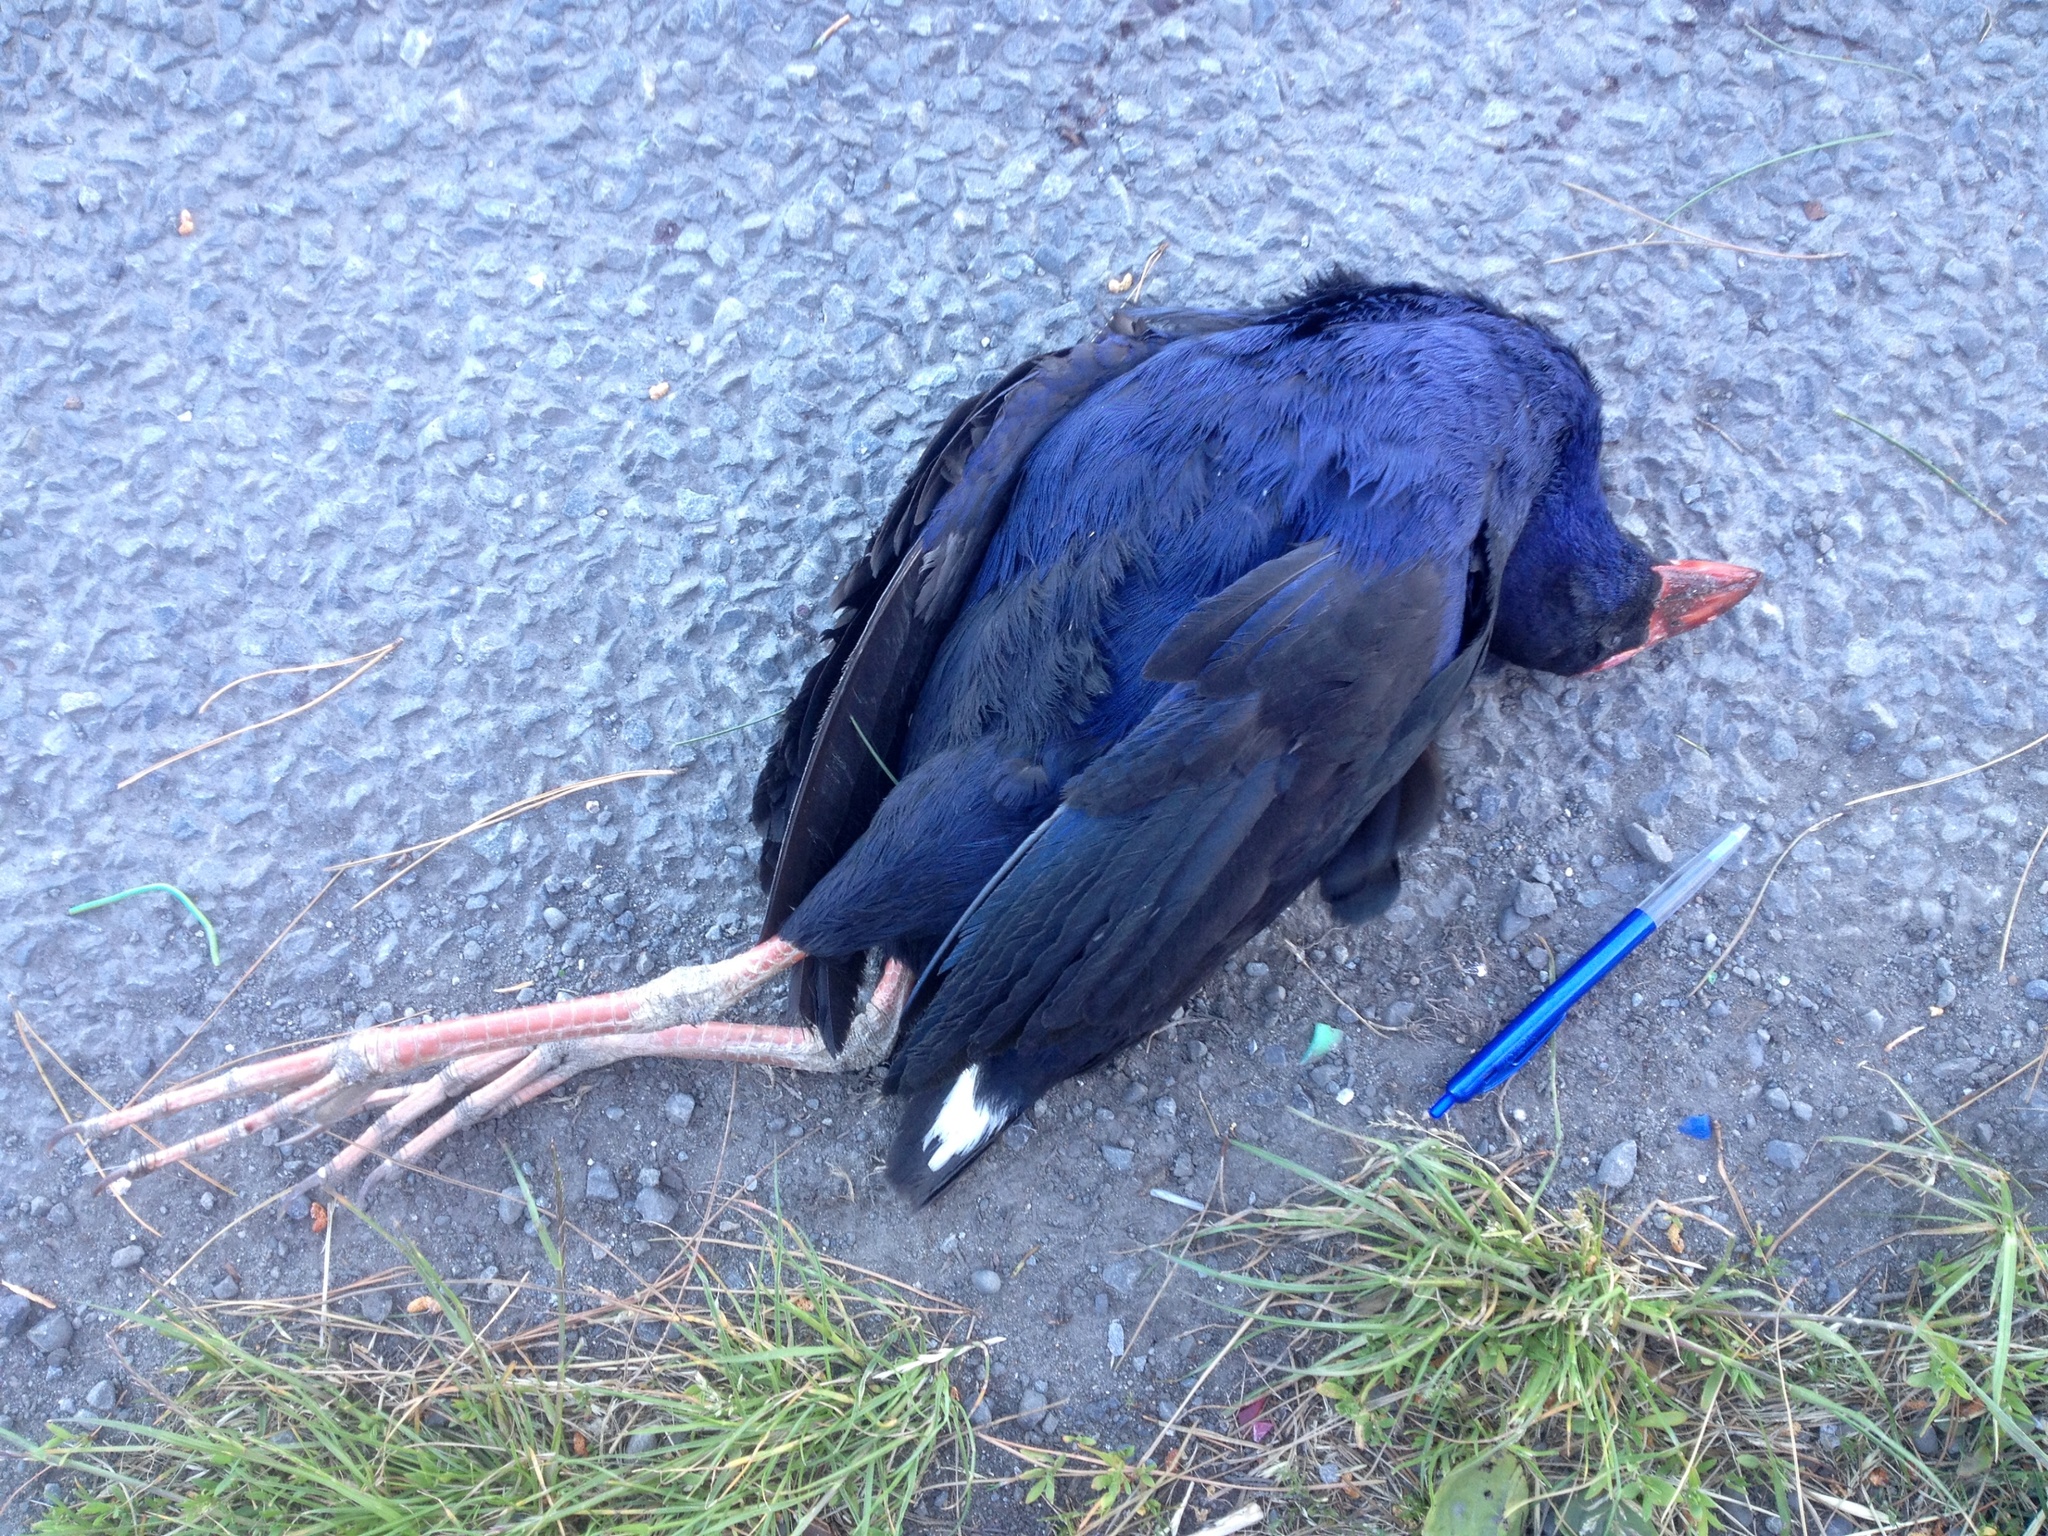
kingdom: Animalia
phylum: Chordata
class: Aves
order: Gruiformes
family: Rallidae
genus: Porphyrio
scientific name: Porphyrio melanotus
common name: Australasian swamphen
